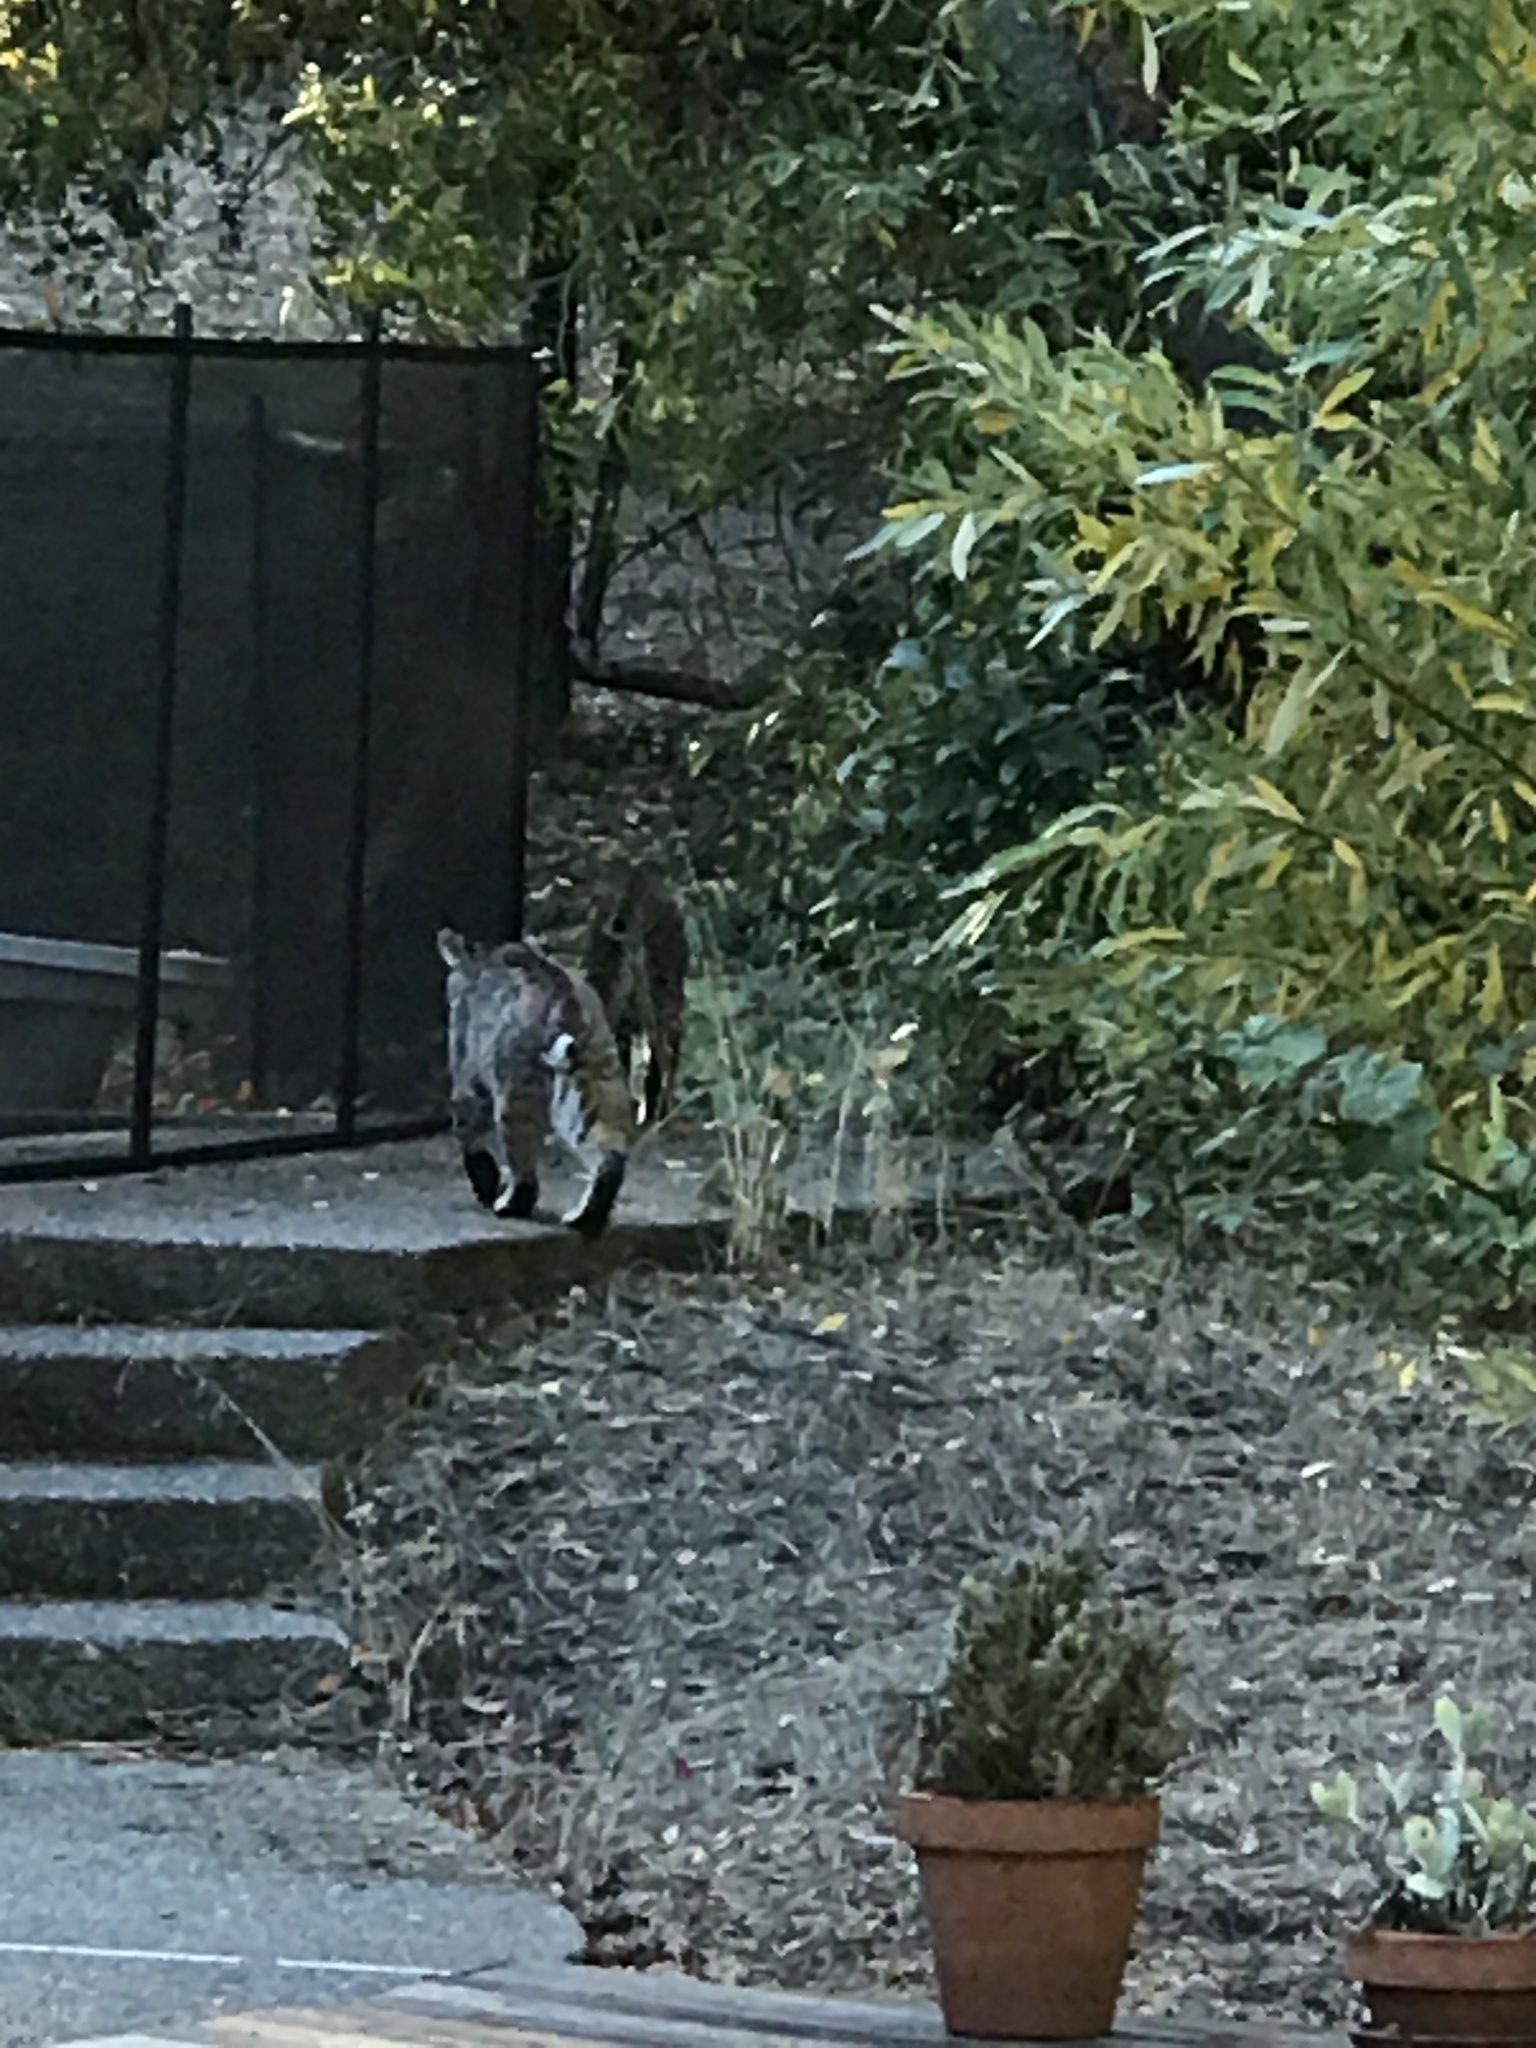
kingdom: Animalia
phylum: Chordata
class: Mammalia
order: Carnivora
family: Felidae
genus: Lynx
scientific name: Lynx rufus
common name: Bobcat
